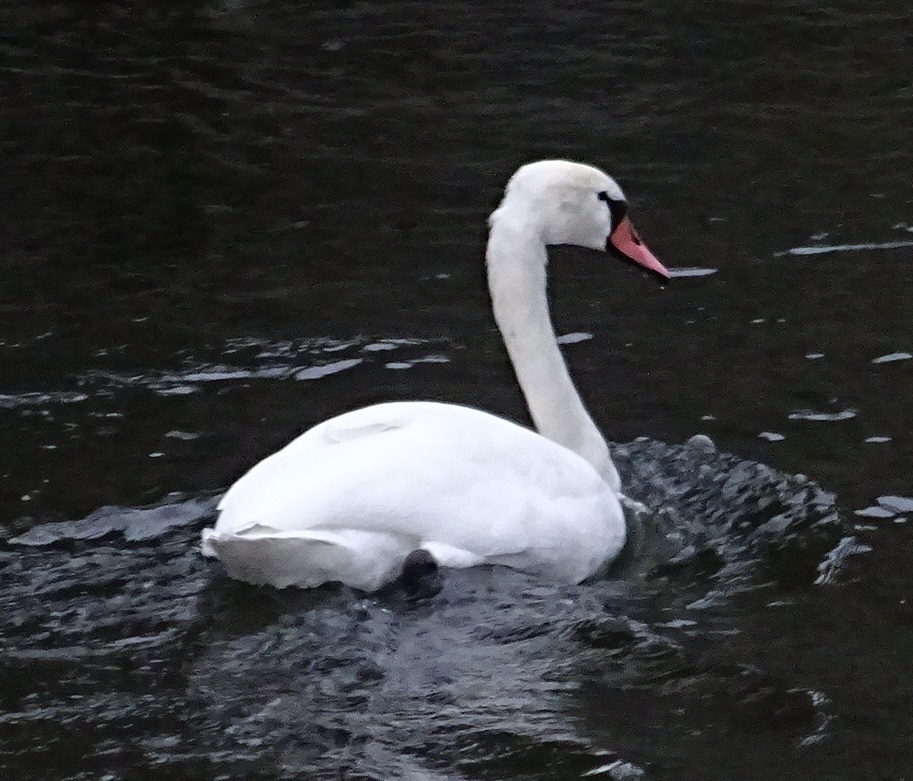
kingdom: Animalia
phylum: Chordata
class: Aves
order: Anseriformes
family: Anatidae
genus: Cygnus
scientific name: Cygnus olor
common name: Mute swan
